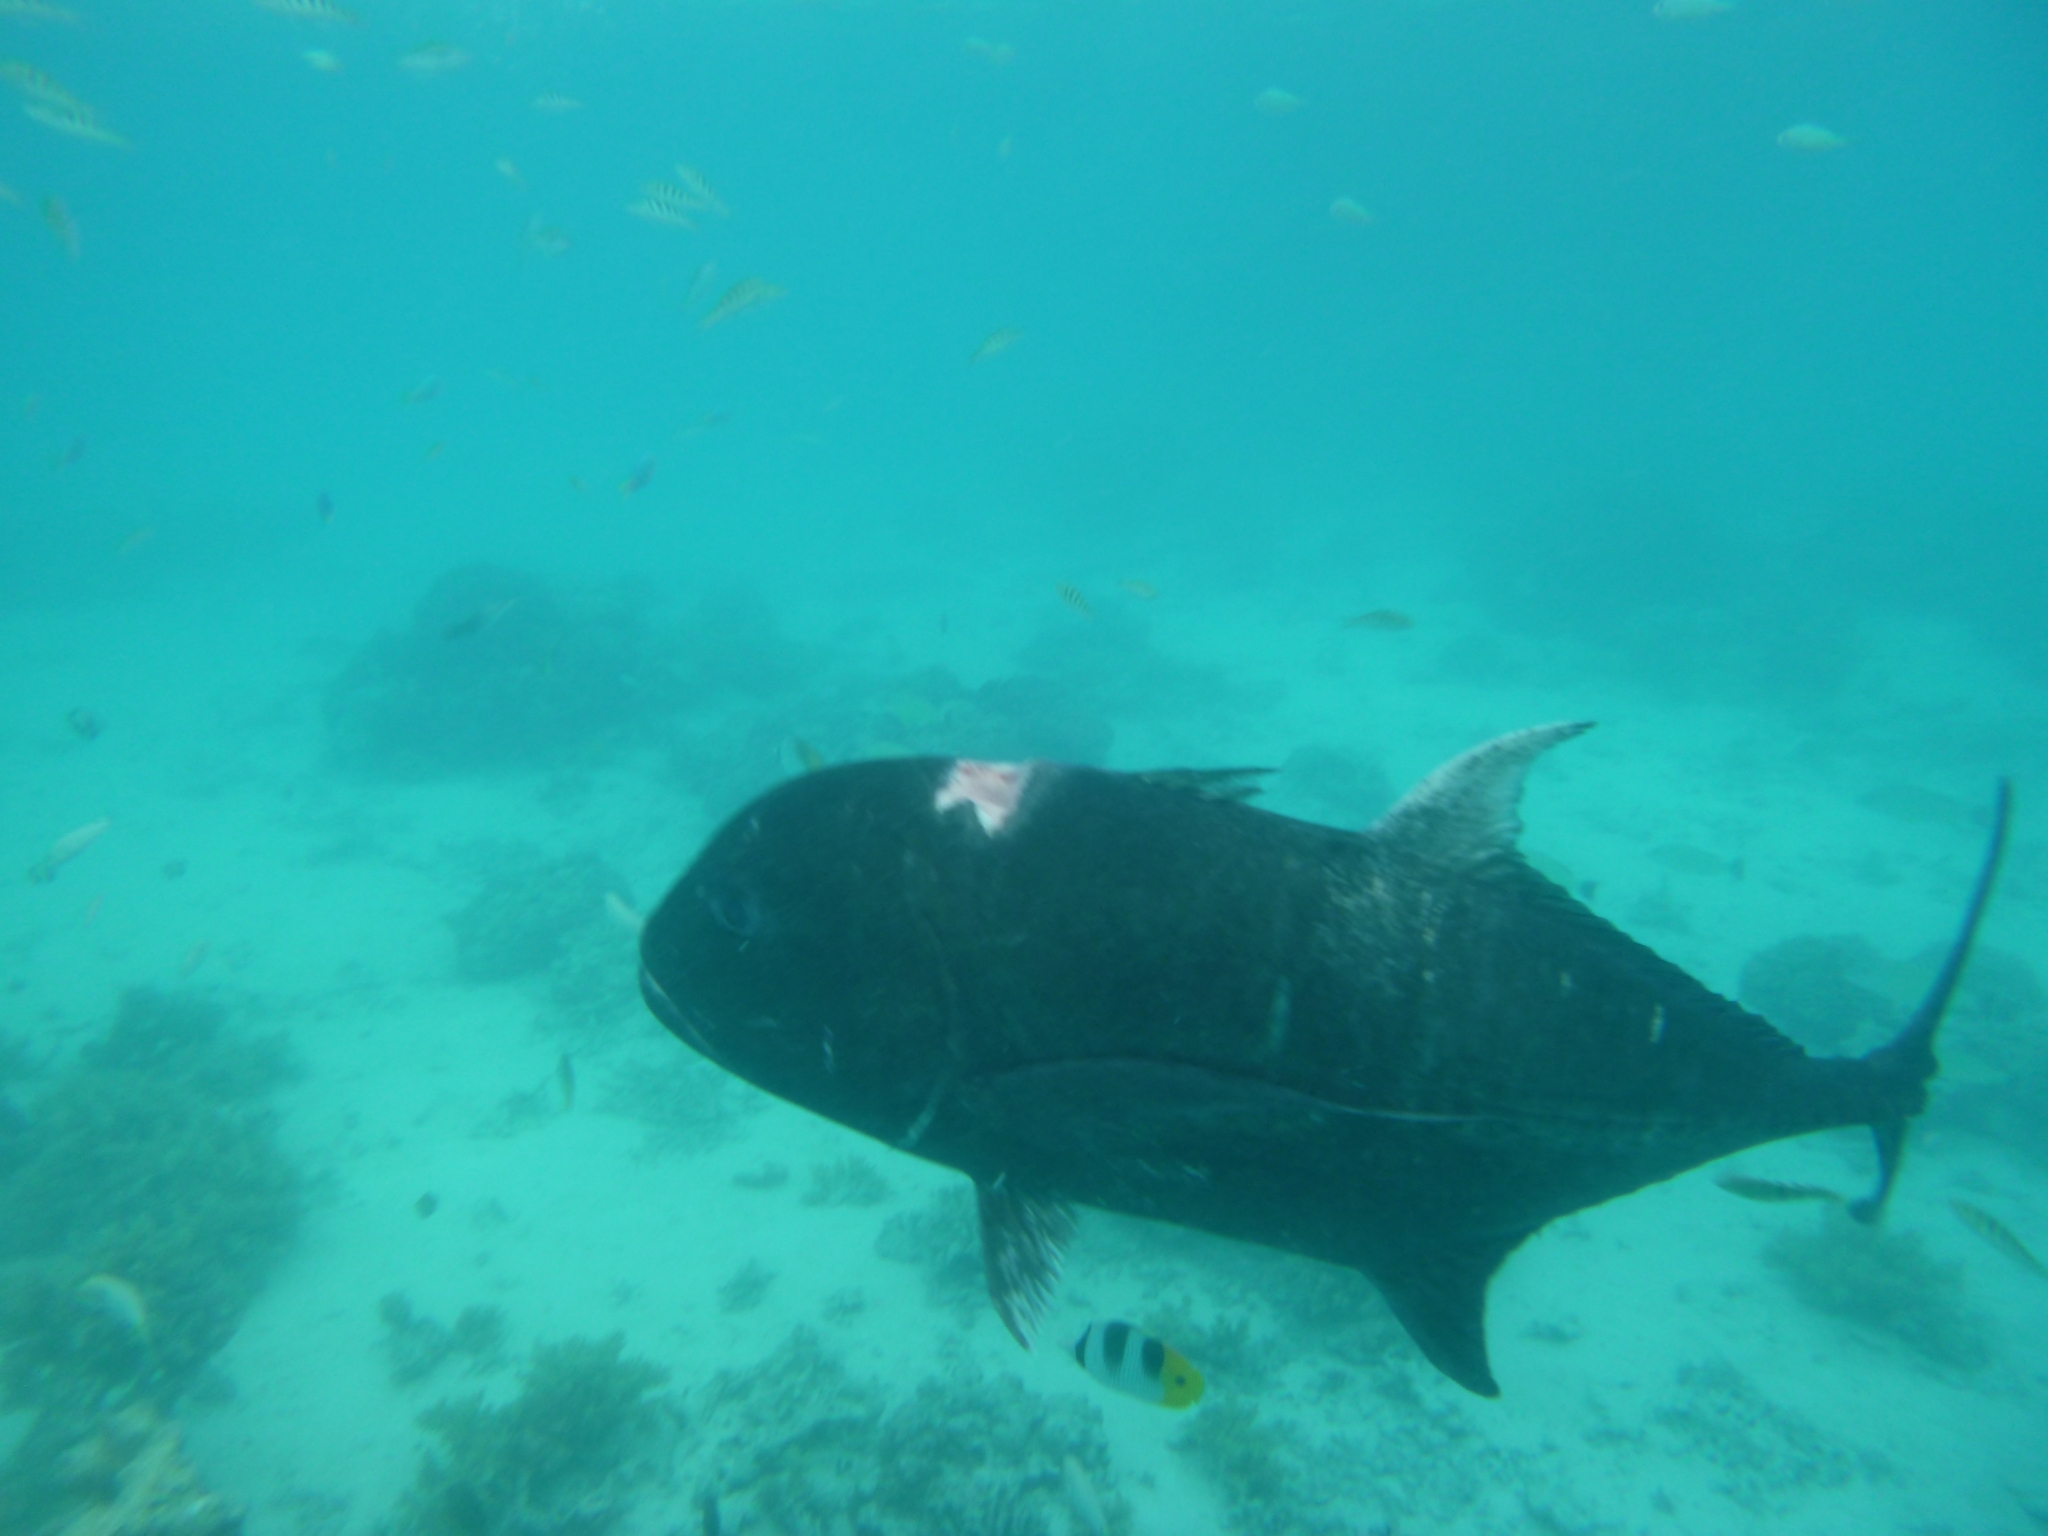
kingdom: Animalia
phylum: Chordata
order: Perciformes
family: Carangidae
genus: Caranx
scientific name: Caranx ignobilis
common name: Giant trevally
